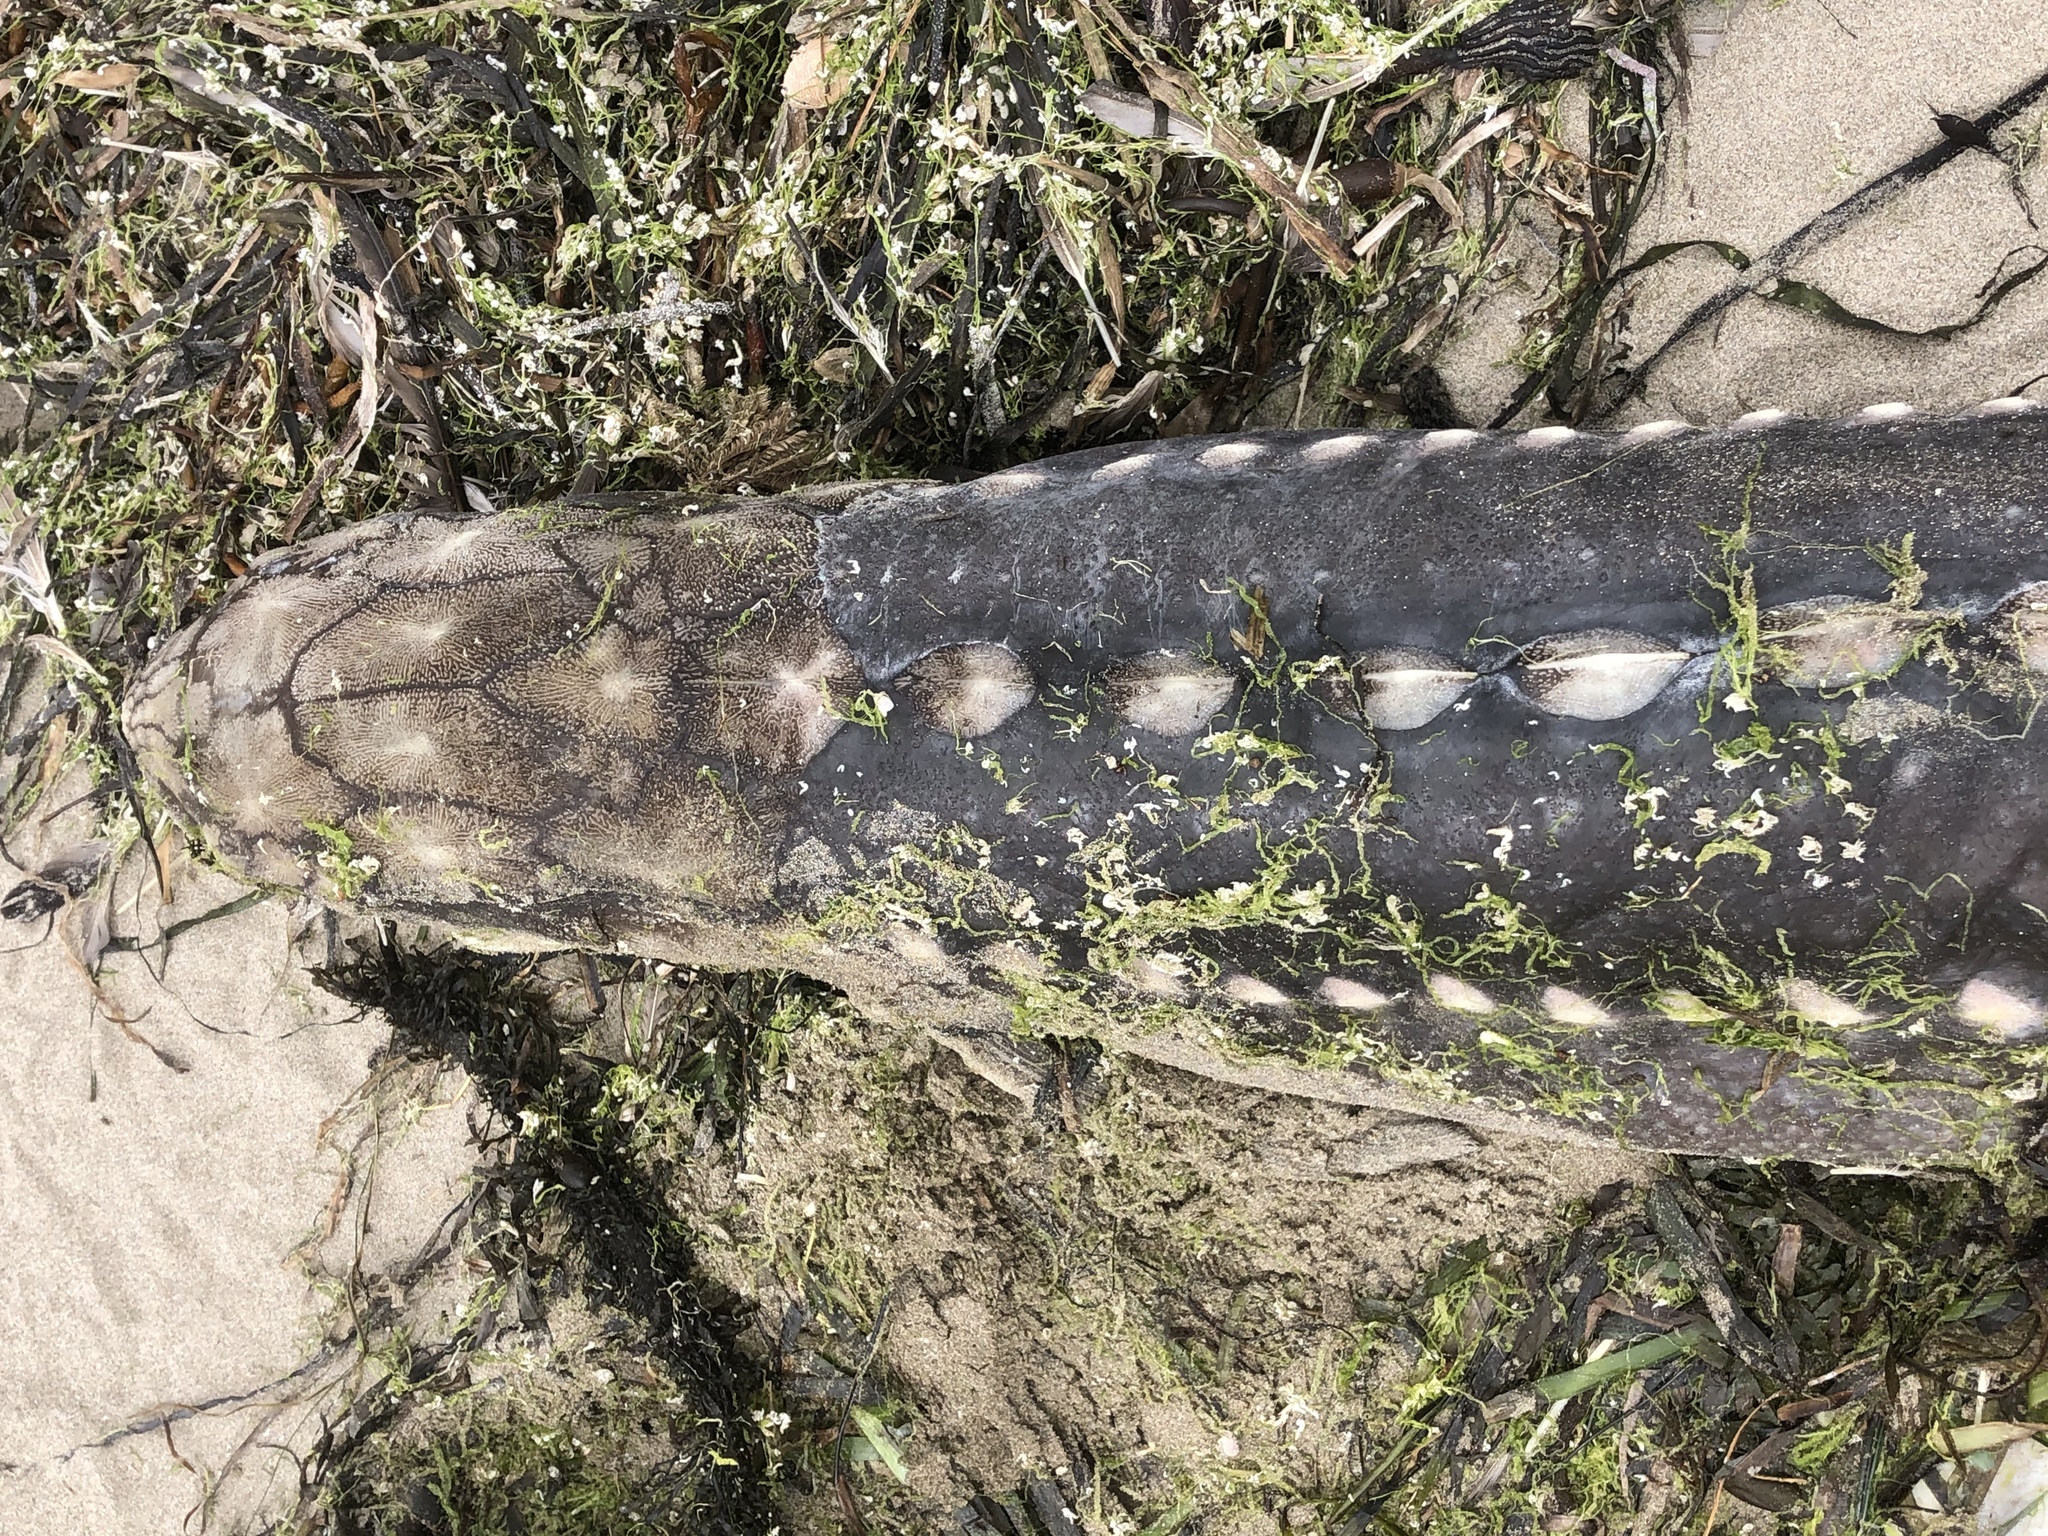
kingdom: Animalia
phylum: Chordata
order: Acipenseriformes
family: Acipenseridae
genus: Acipenser
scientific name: Acipenser transmontanus
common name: White sturgeon
